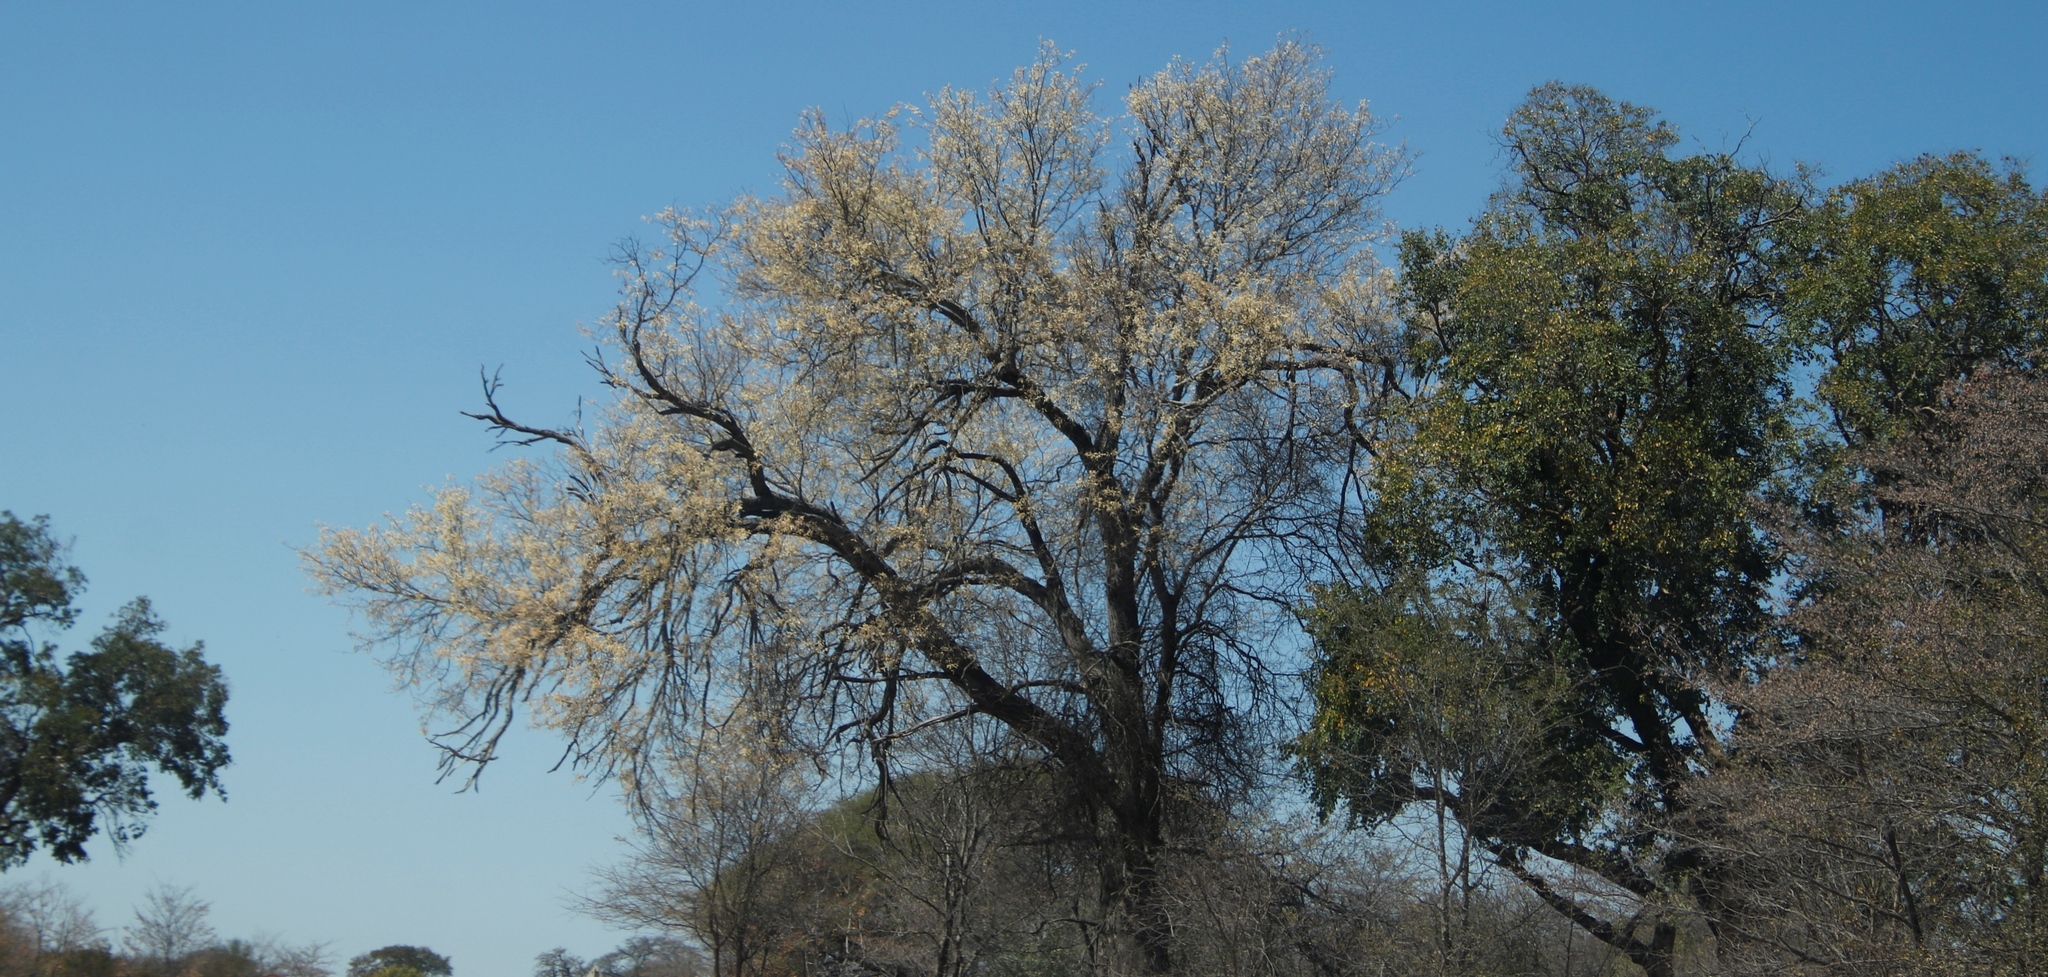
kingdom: Plantae
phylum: Tracheophyta
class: Magnoliopsida
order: Fabales
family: Fabaceae
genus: Senegalia
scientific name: Senegalia nigrescens
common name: Knobthorn
